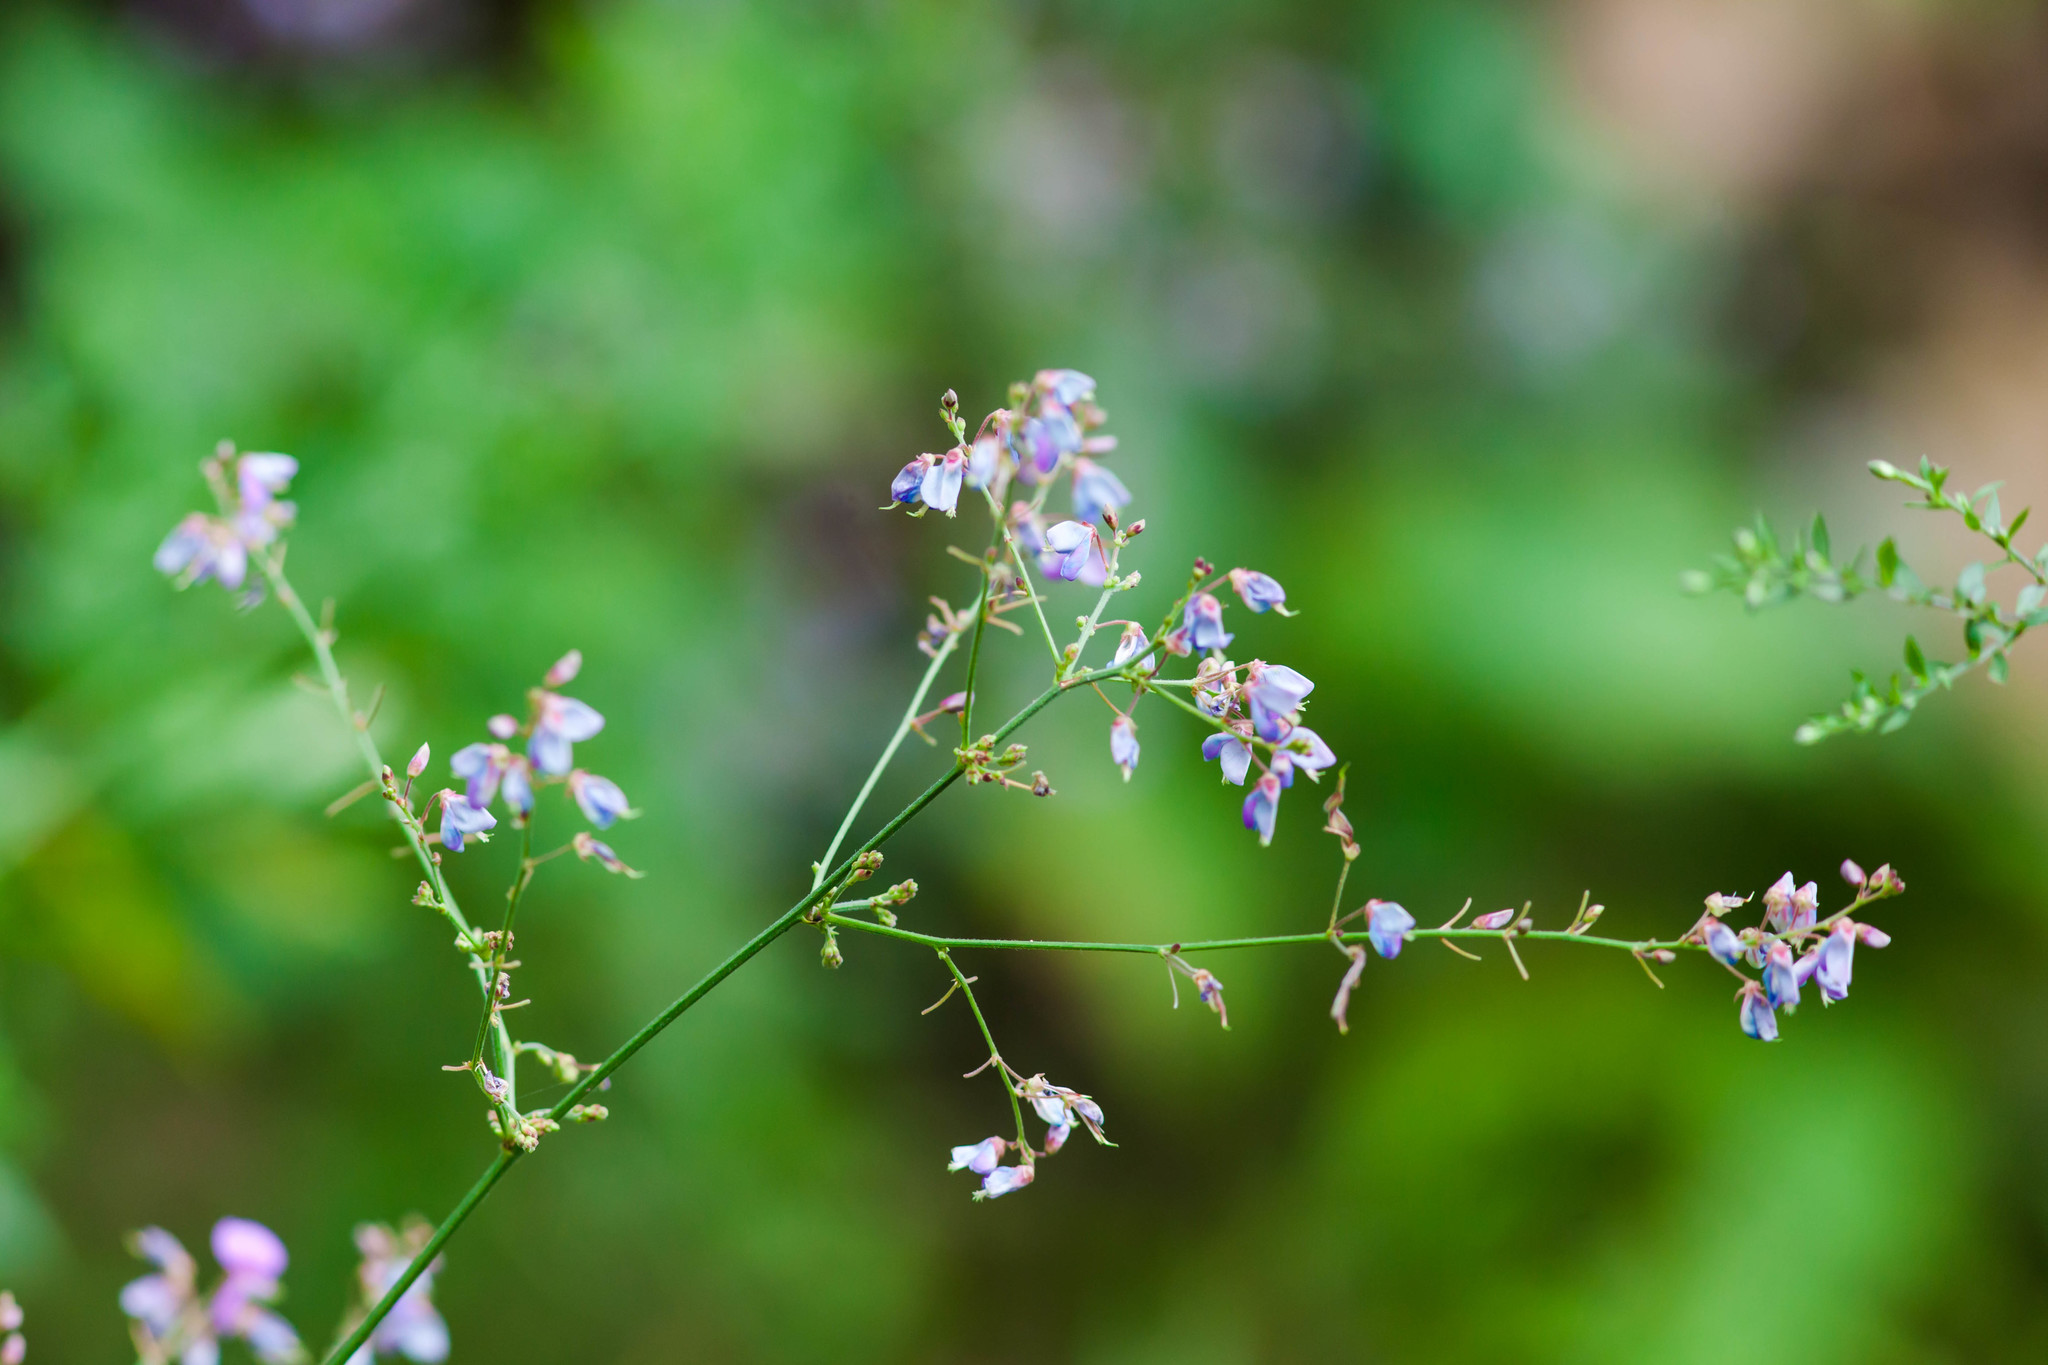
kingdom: Plantae
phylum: Tracheophyta
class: Magnoliopsida
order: Fabales
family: Fabaceae
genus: Desmodium
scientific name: Desmodium paniculatum
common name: Panicled tick-clover
